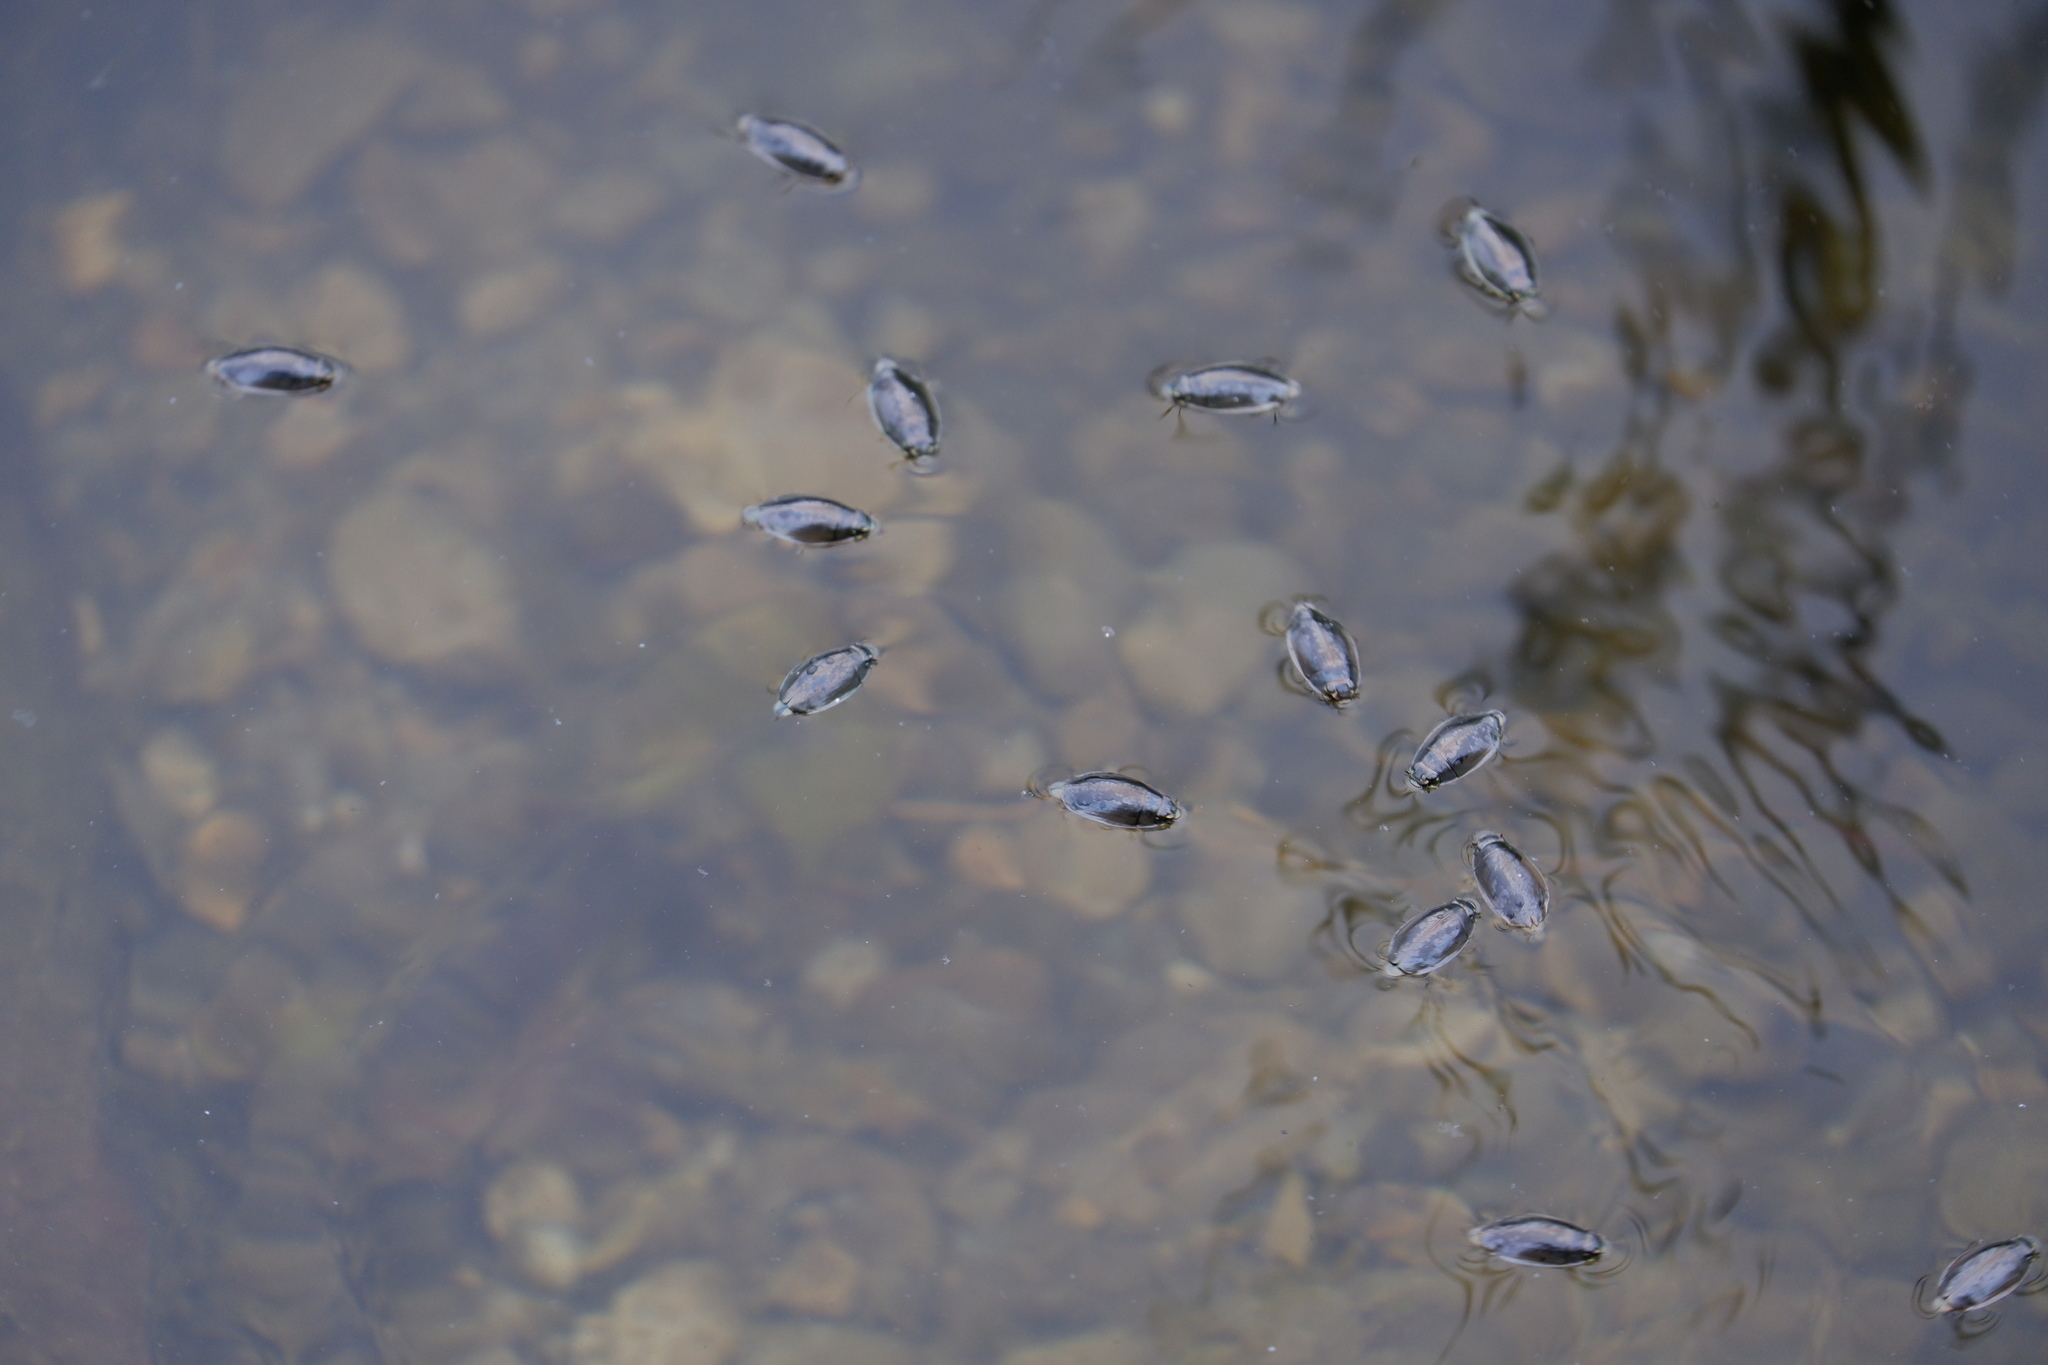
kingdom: Animalia
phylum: Arthropoda
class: Insecta
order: Coleoptera
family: Gyrinidae
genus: Dineutus
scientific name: Dineutus
